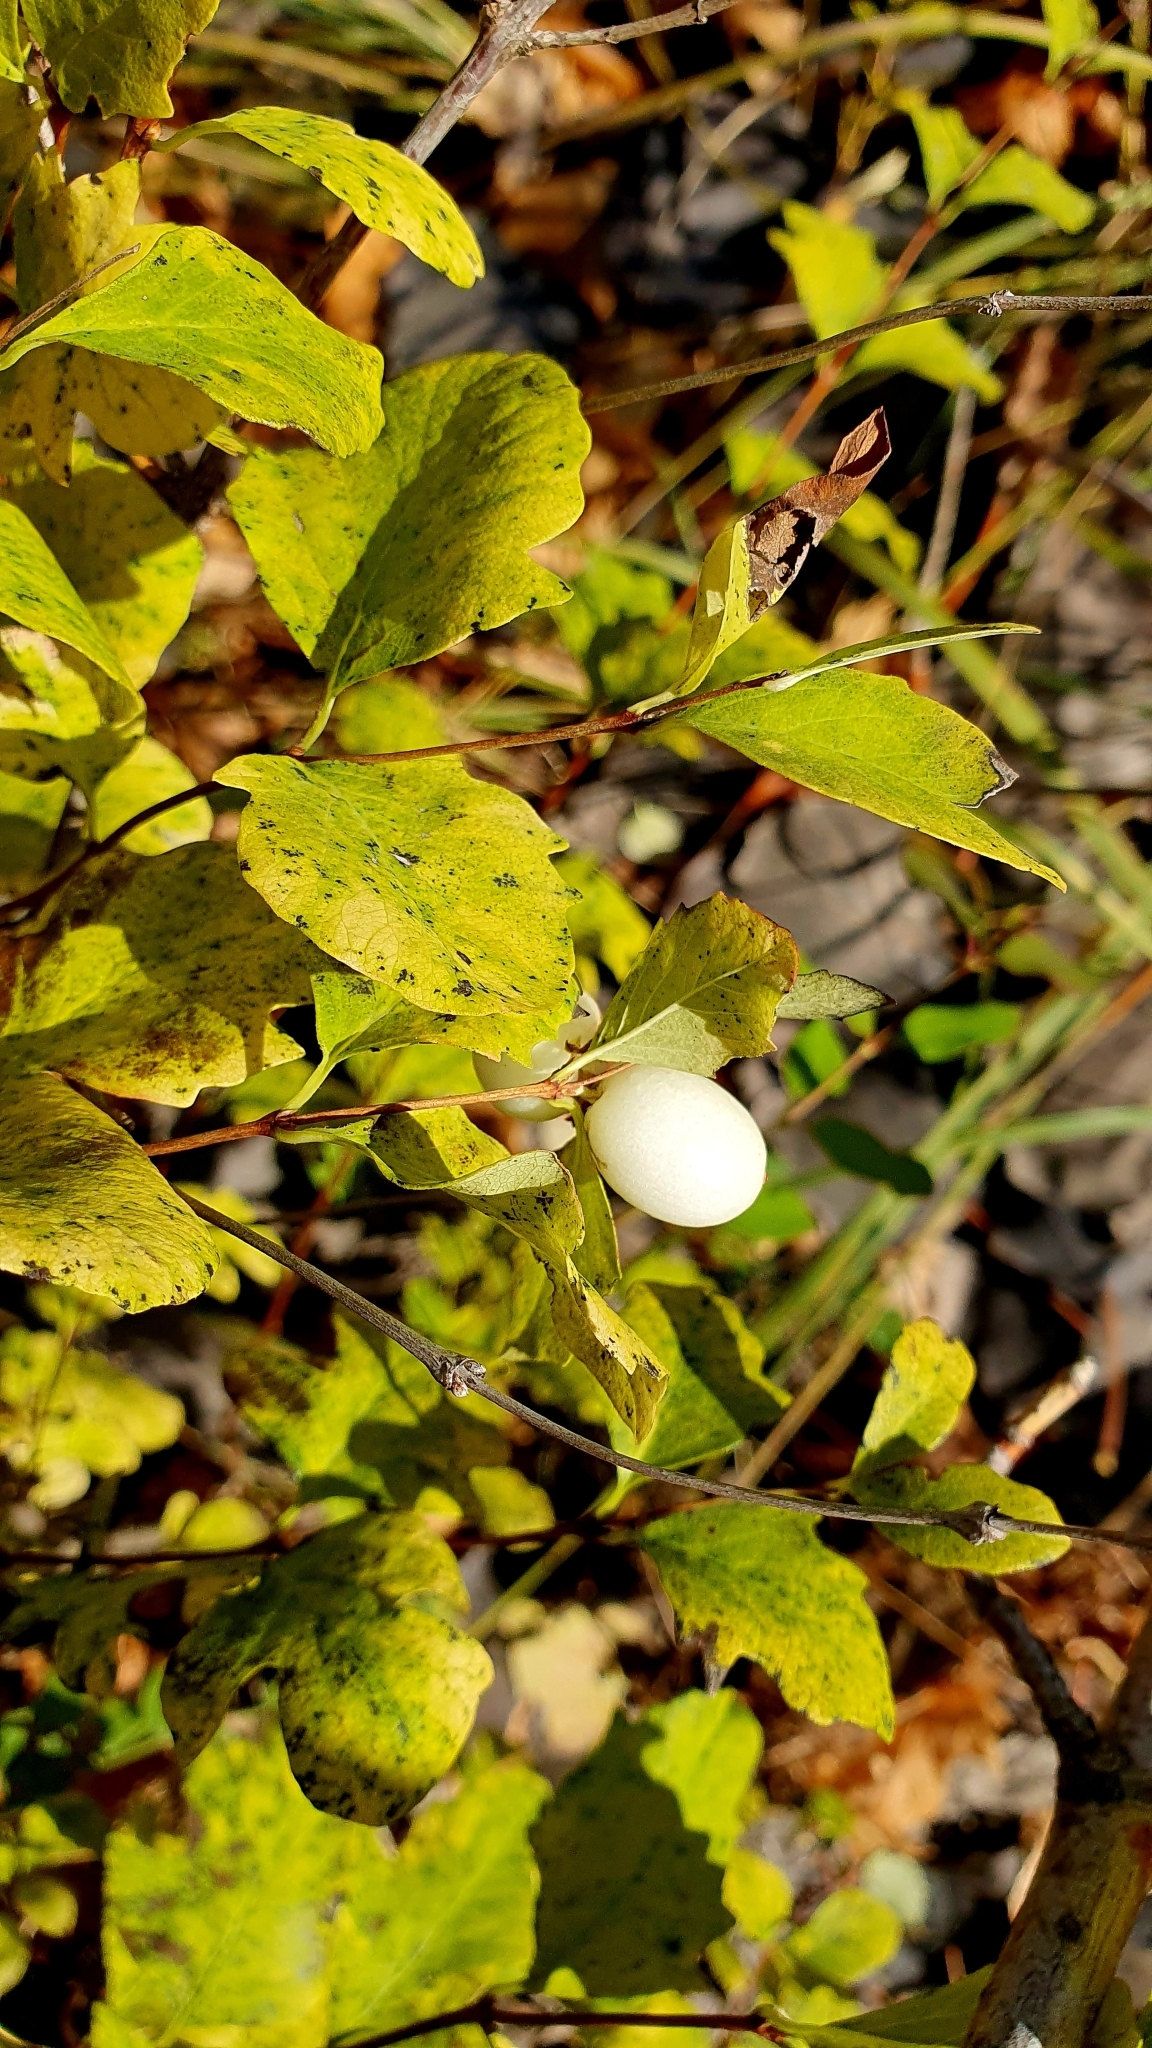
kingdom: Plantae
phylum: Tracheophyta
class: Magnoliopsida
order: Dipsacales
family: Caprifoliaceae
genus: Symphoricarpos
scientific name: Symphoricarpos albus
